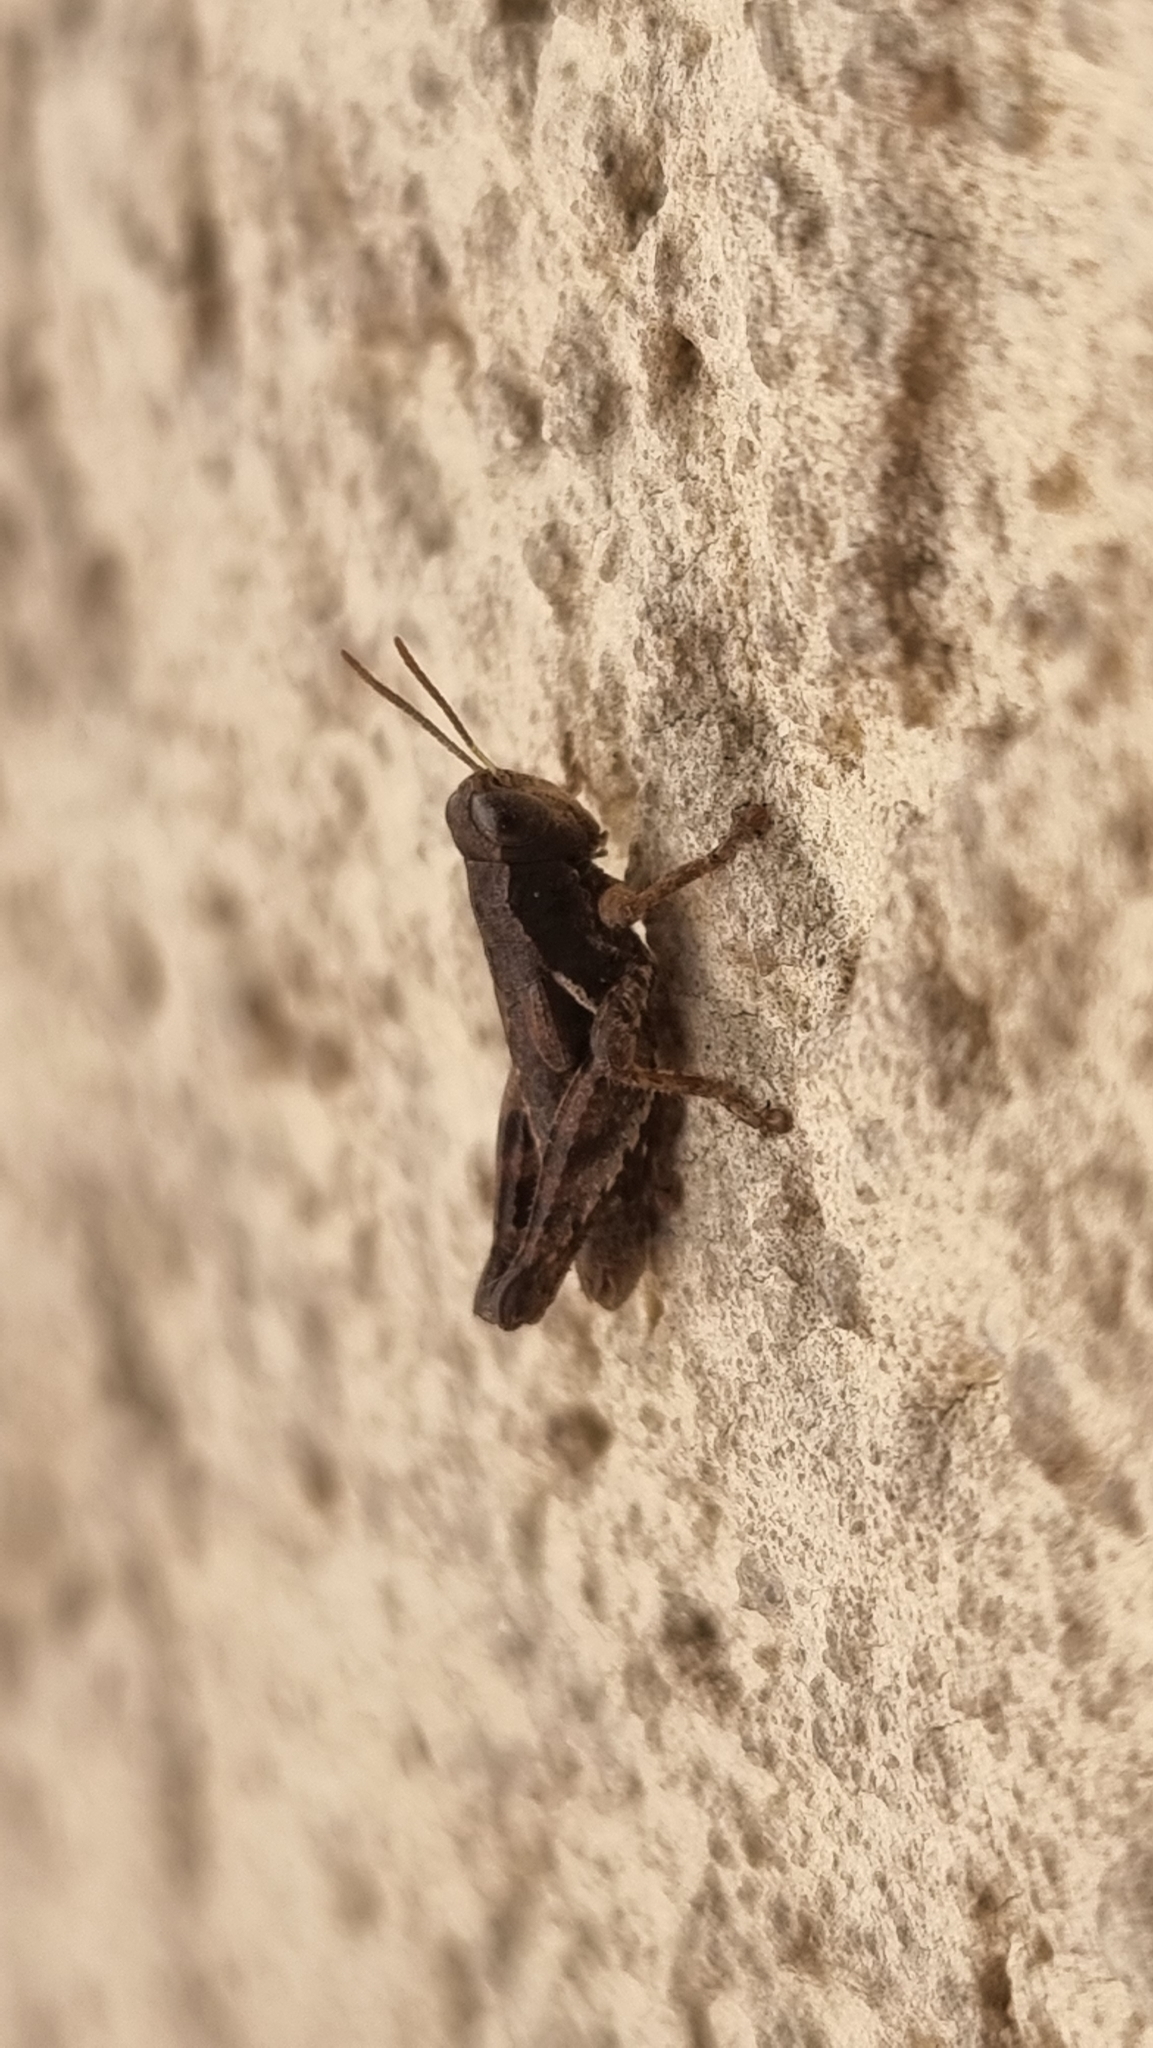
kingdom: Animalia
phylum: Arthropoda
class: Insecta
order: Orthoptera
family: Acrididae
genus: Pezotettix
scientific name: Pezotettix giornae
